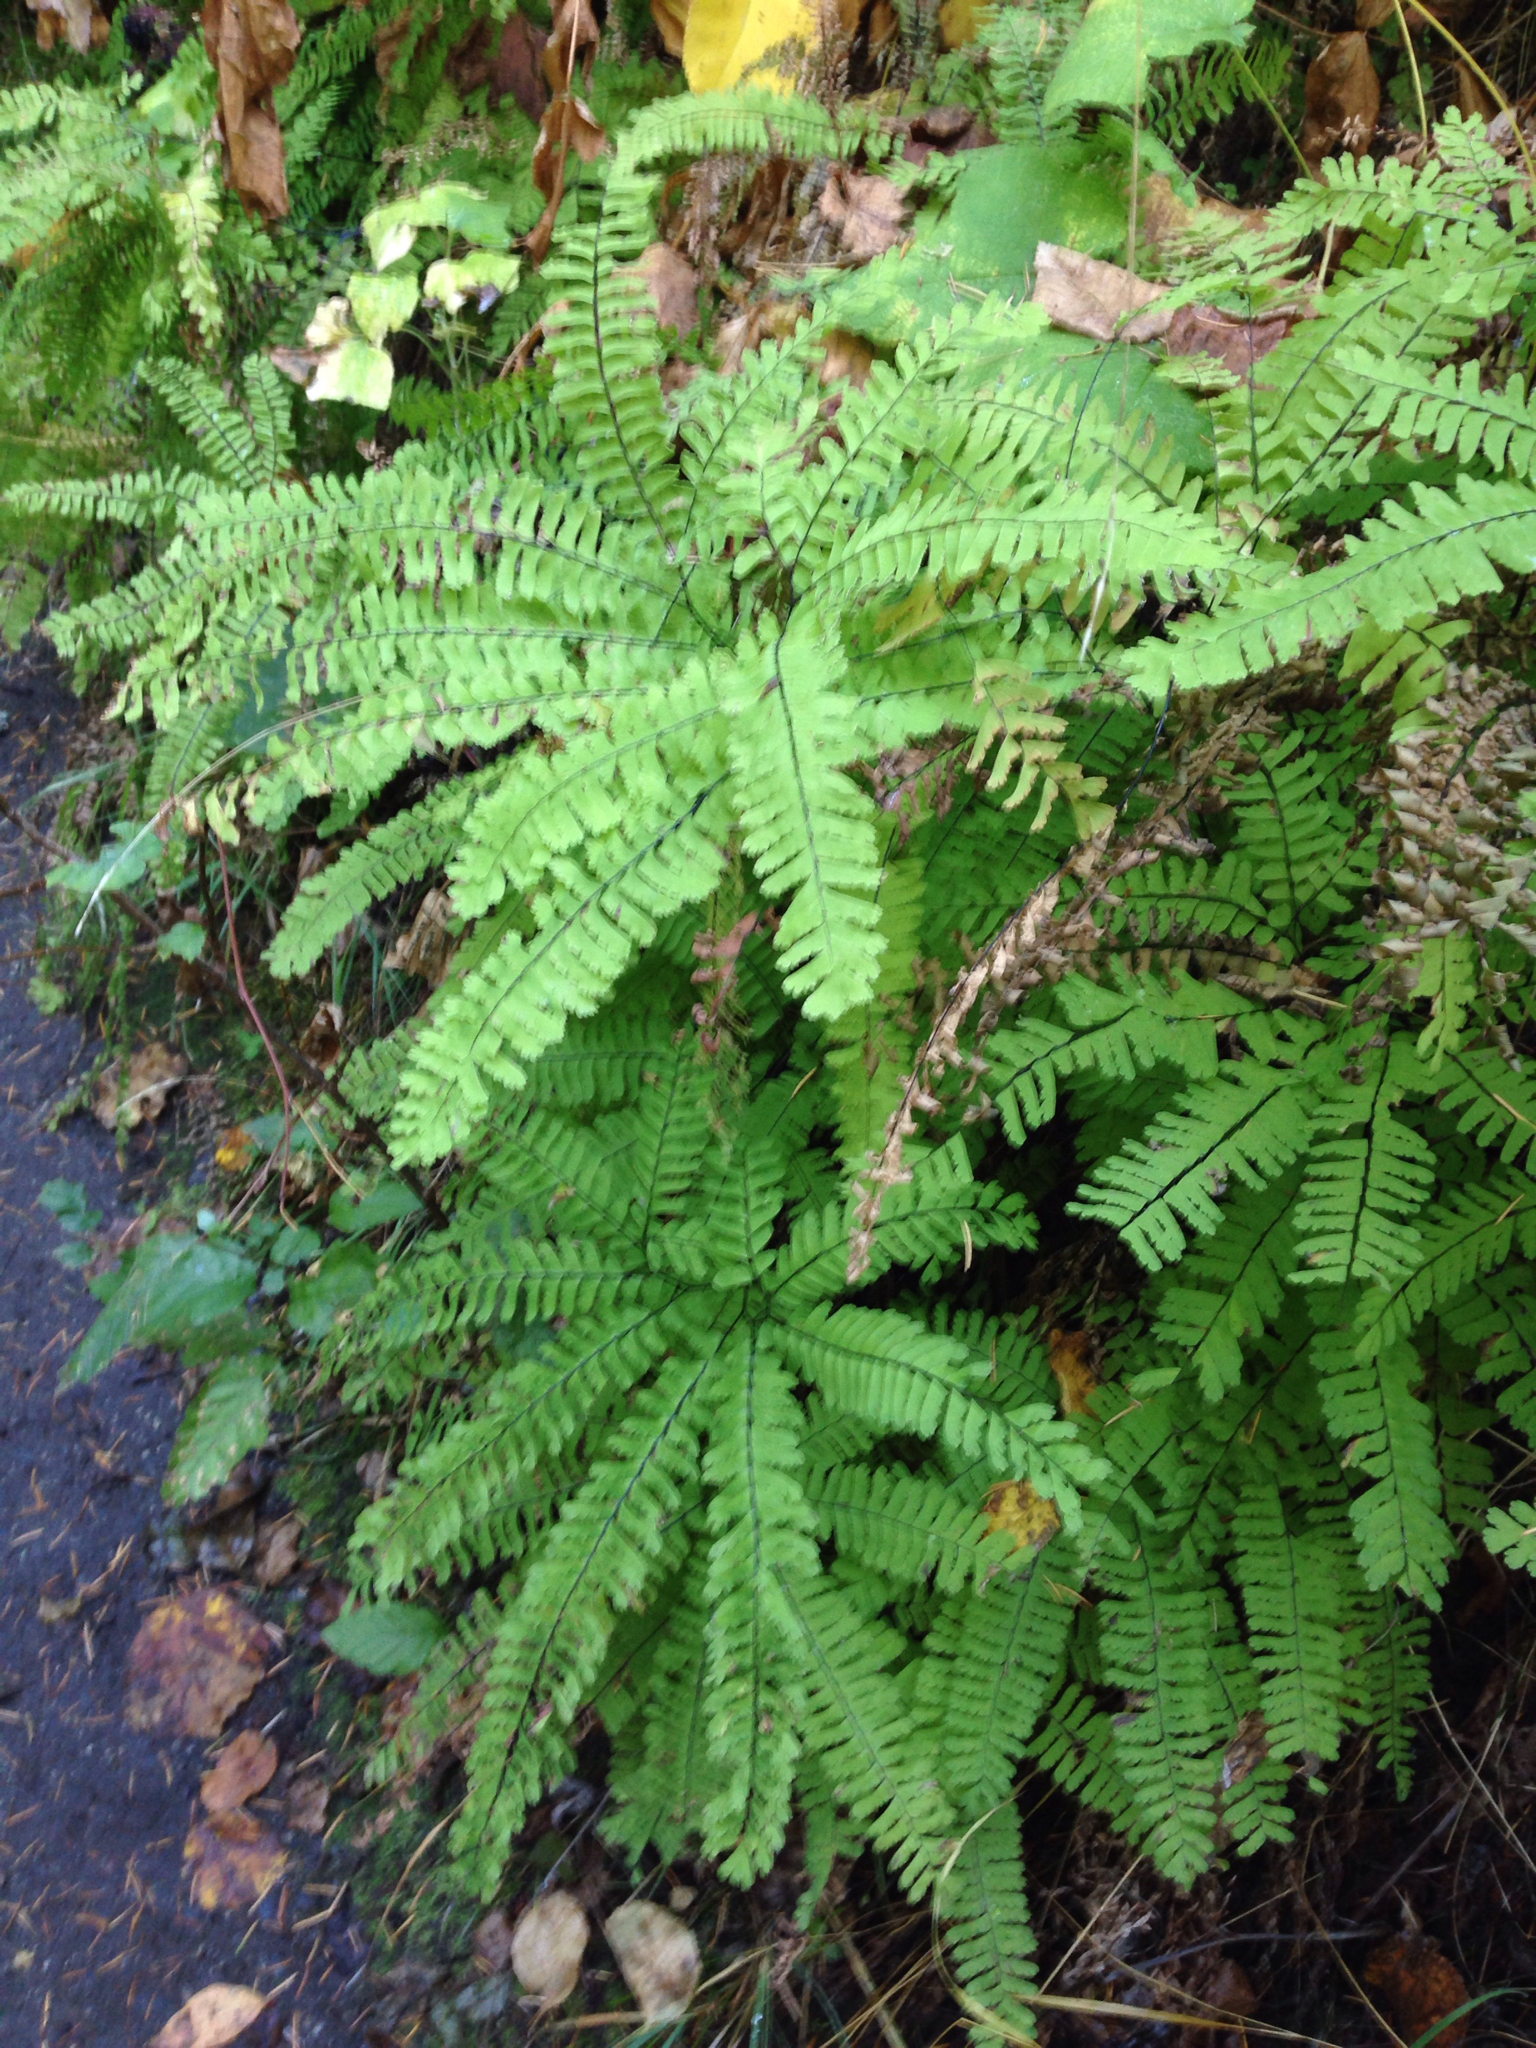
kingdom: Plantae
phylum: Tracheophyta
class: Polypodiopsida
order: Polypodiales
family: Pteridaceae
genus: Adiantum
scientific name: Adiantum aleuticum
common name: Aleutian maidenhair fern
